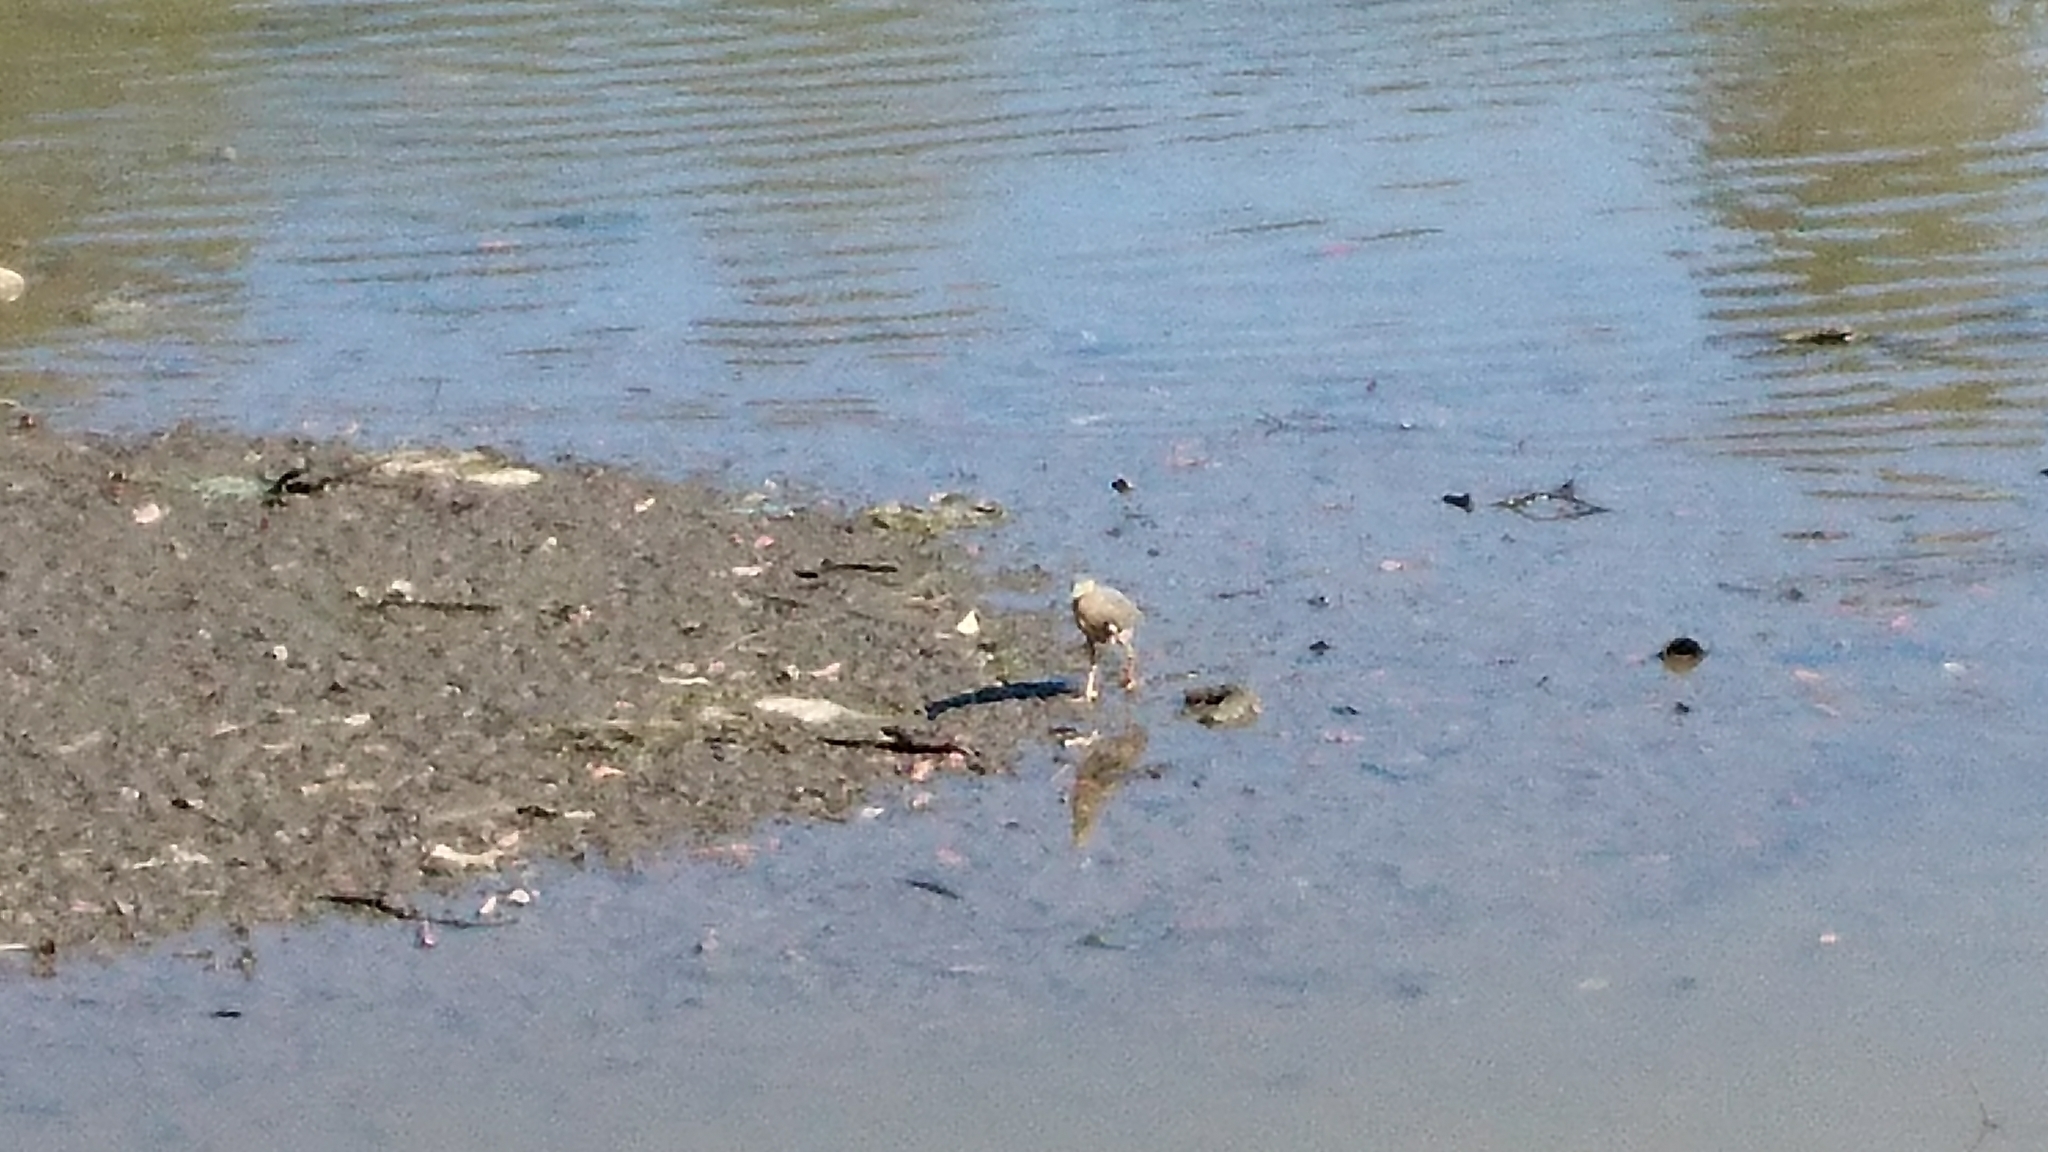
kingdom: Animalia
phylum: Chordata
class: Aves
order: Pelecaniformes
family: Ardeidae
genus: Butorides
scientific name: Butorides striata
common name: Striated heron
